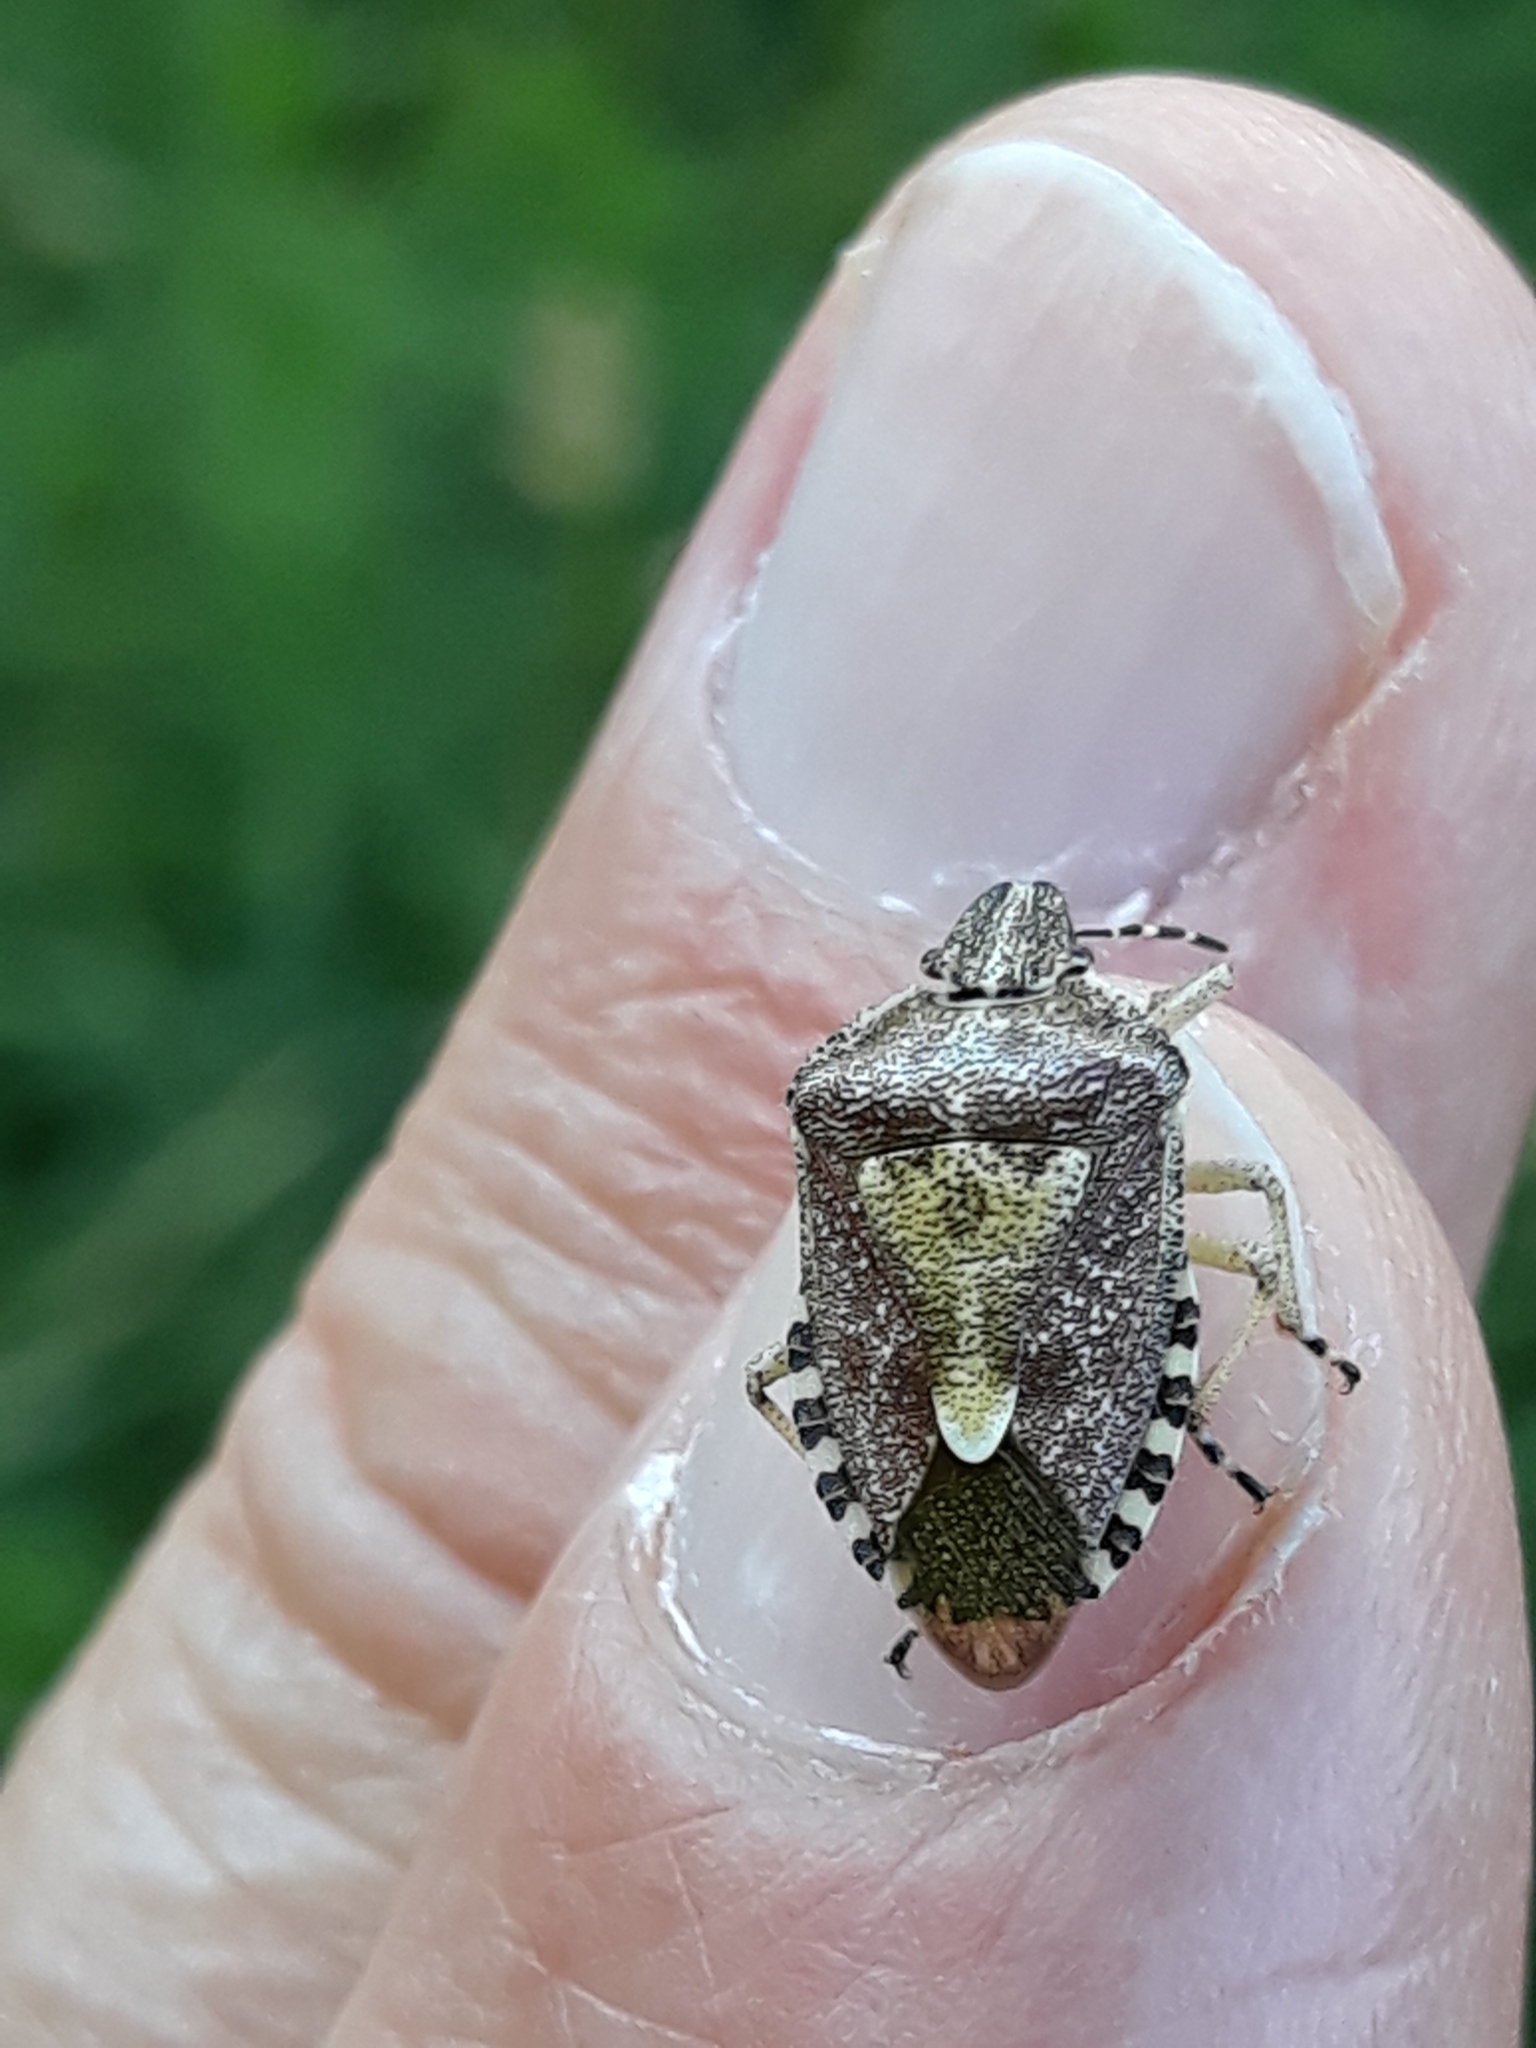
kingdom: Animalia
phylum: Arthropoda
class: Insecta
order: Hemiptera
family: Pentatomidae
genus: Dolycoris
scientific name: Dolycoris baccarum
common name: Sloe bug
